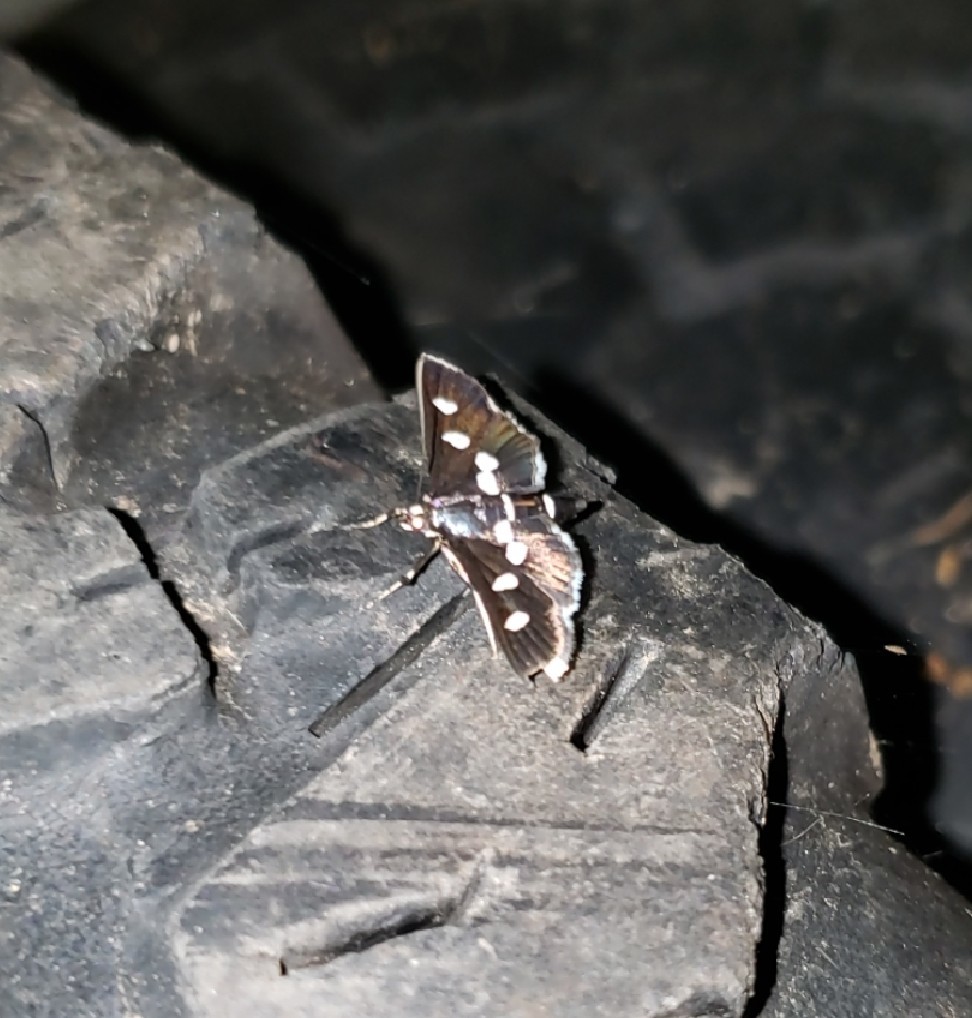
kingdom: Animalia
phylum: Arthropoda
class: Insecta
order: Lepidoptera
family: Crambidae
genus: Desmia
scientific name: Desmia
